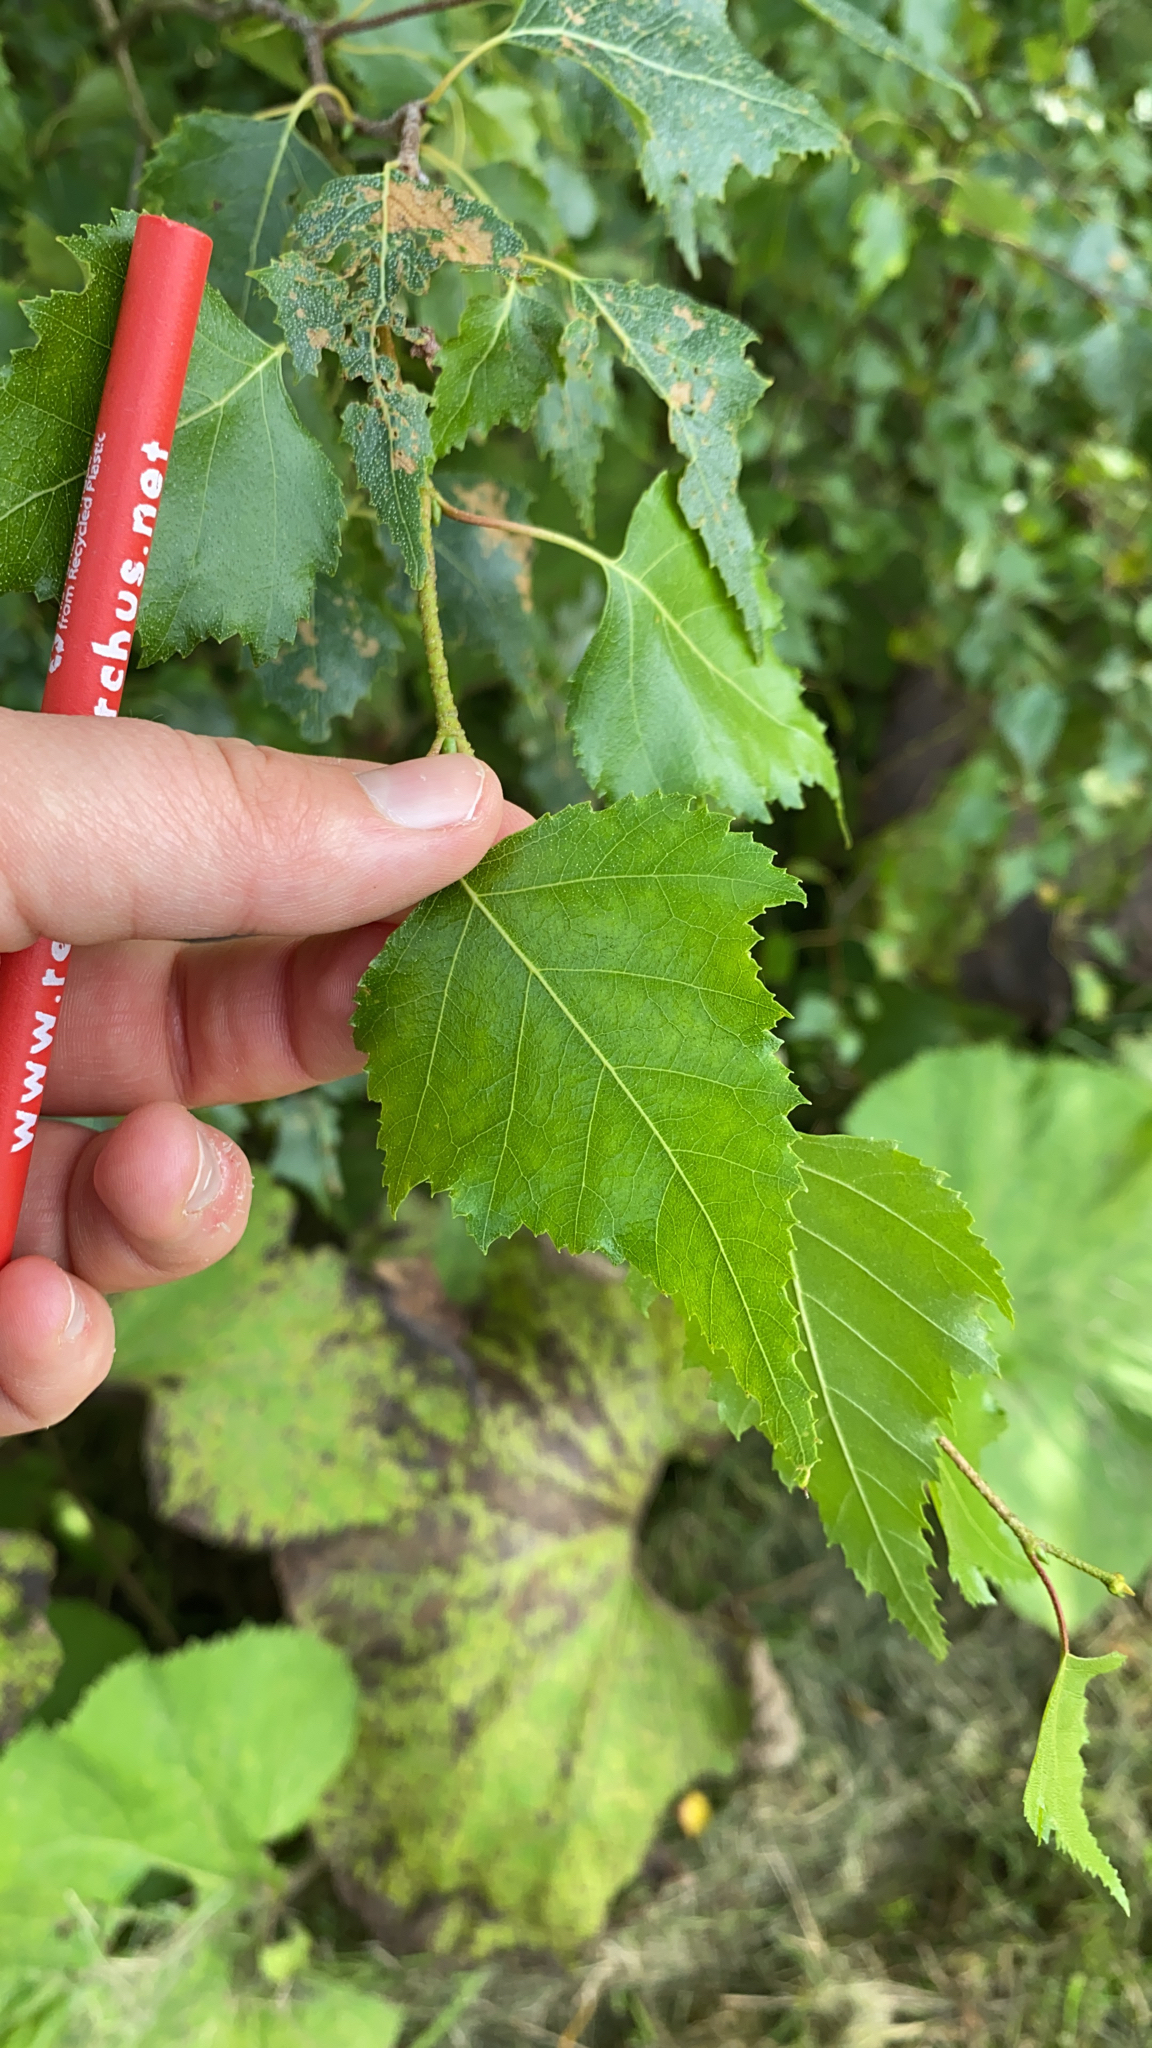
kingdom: Plantae
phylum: Tracheophyta
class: Magnoliopsida
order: Fagales
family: Betulaceae
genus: Betula
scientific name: Betula populifolia
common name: Fire birch
